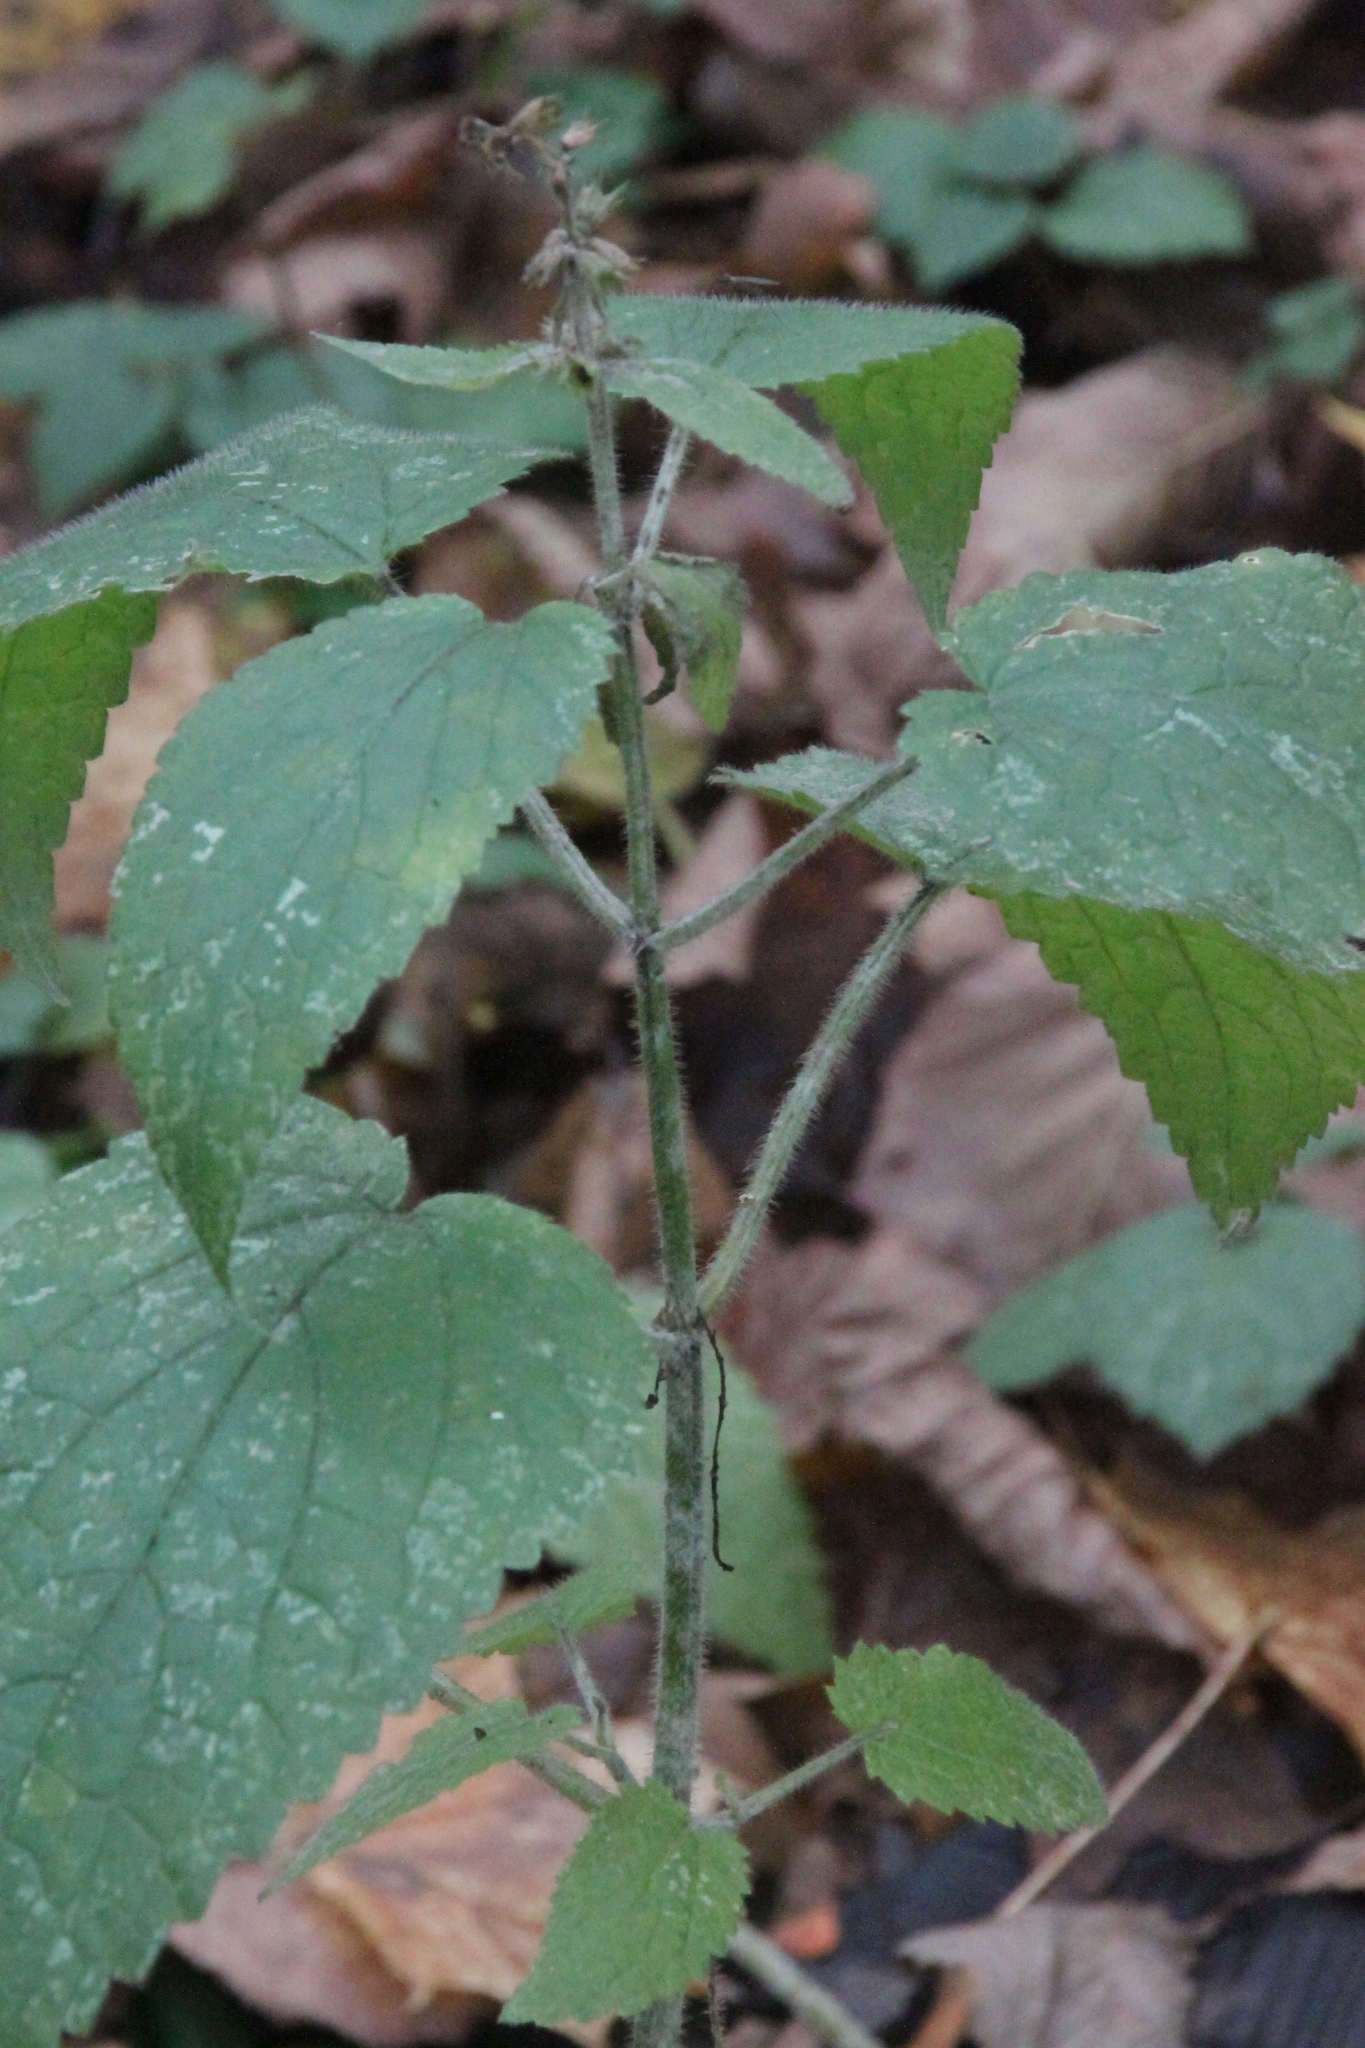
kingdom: Plantae
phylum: Tracheophyta
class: Magnoliopsida
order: Lamiales
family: Lamiaceae
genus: Stachys
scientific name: Stachys sylvatica
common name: Hedge woundwort
